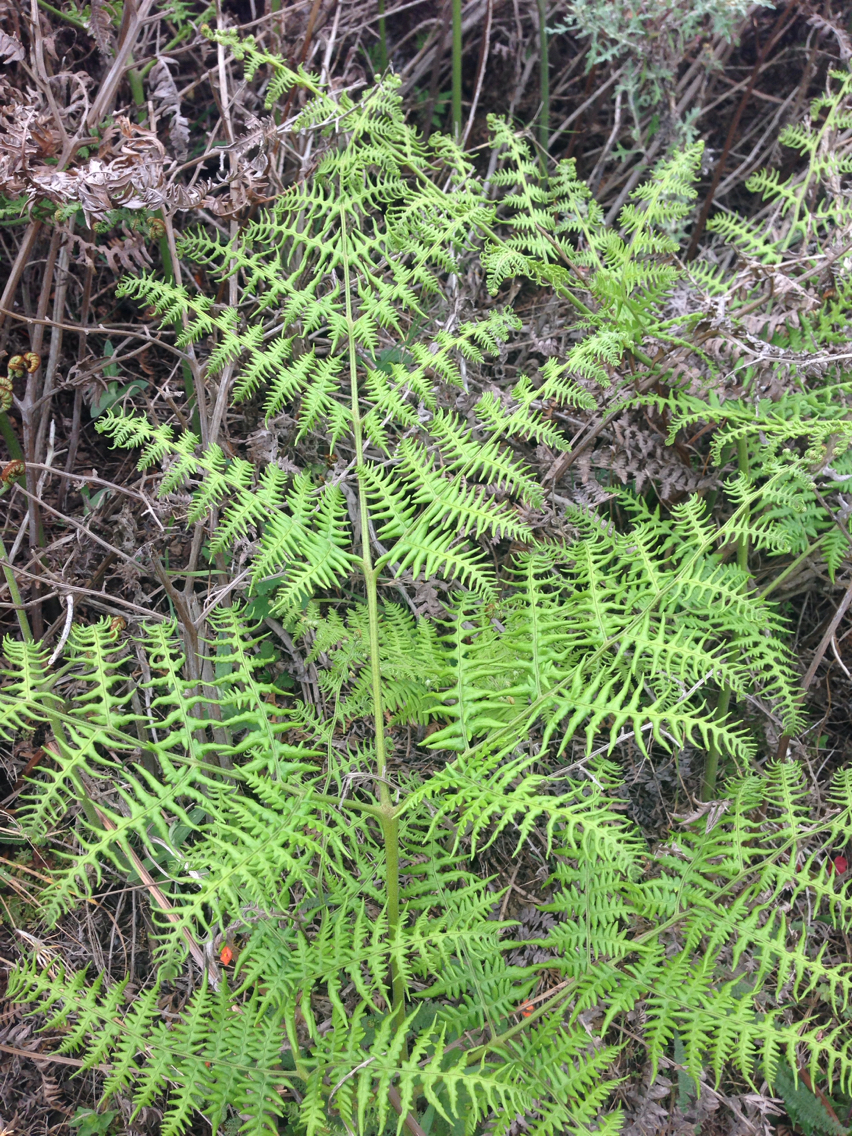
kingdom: Plantae
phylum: Tracheophyta
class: Polypodiopsida
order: Polypodiales
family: Dennstaedtiaceae
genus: Pteridium
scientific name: Pteridium aquilinum
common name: Bracken
